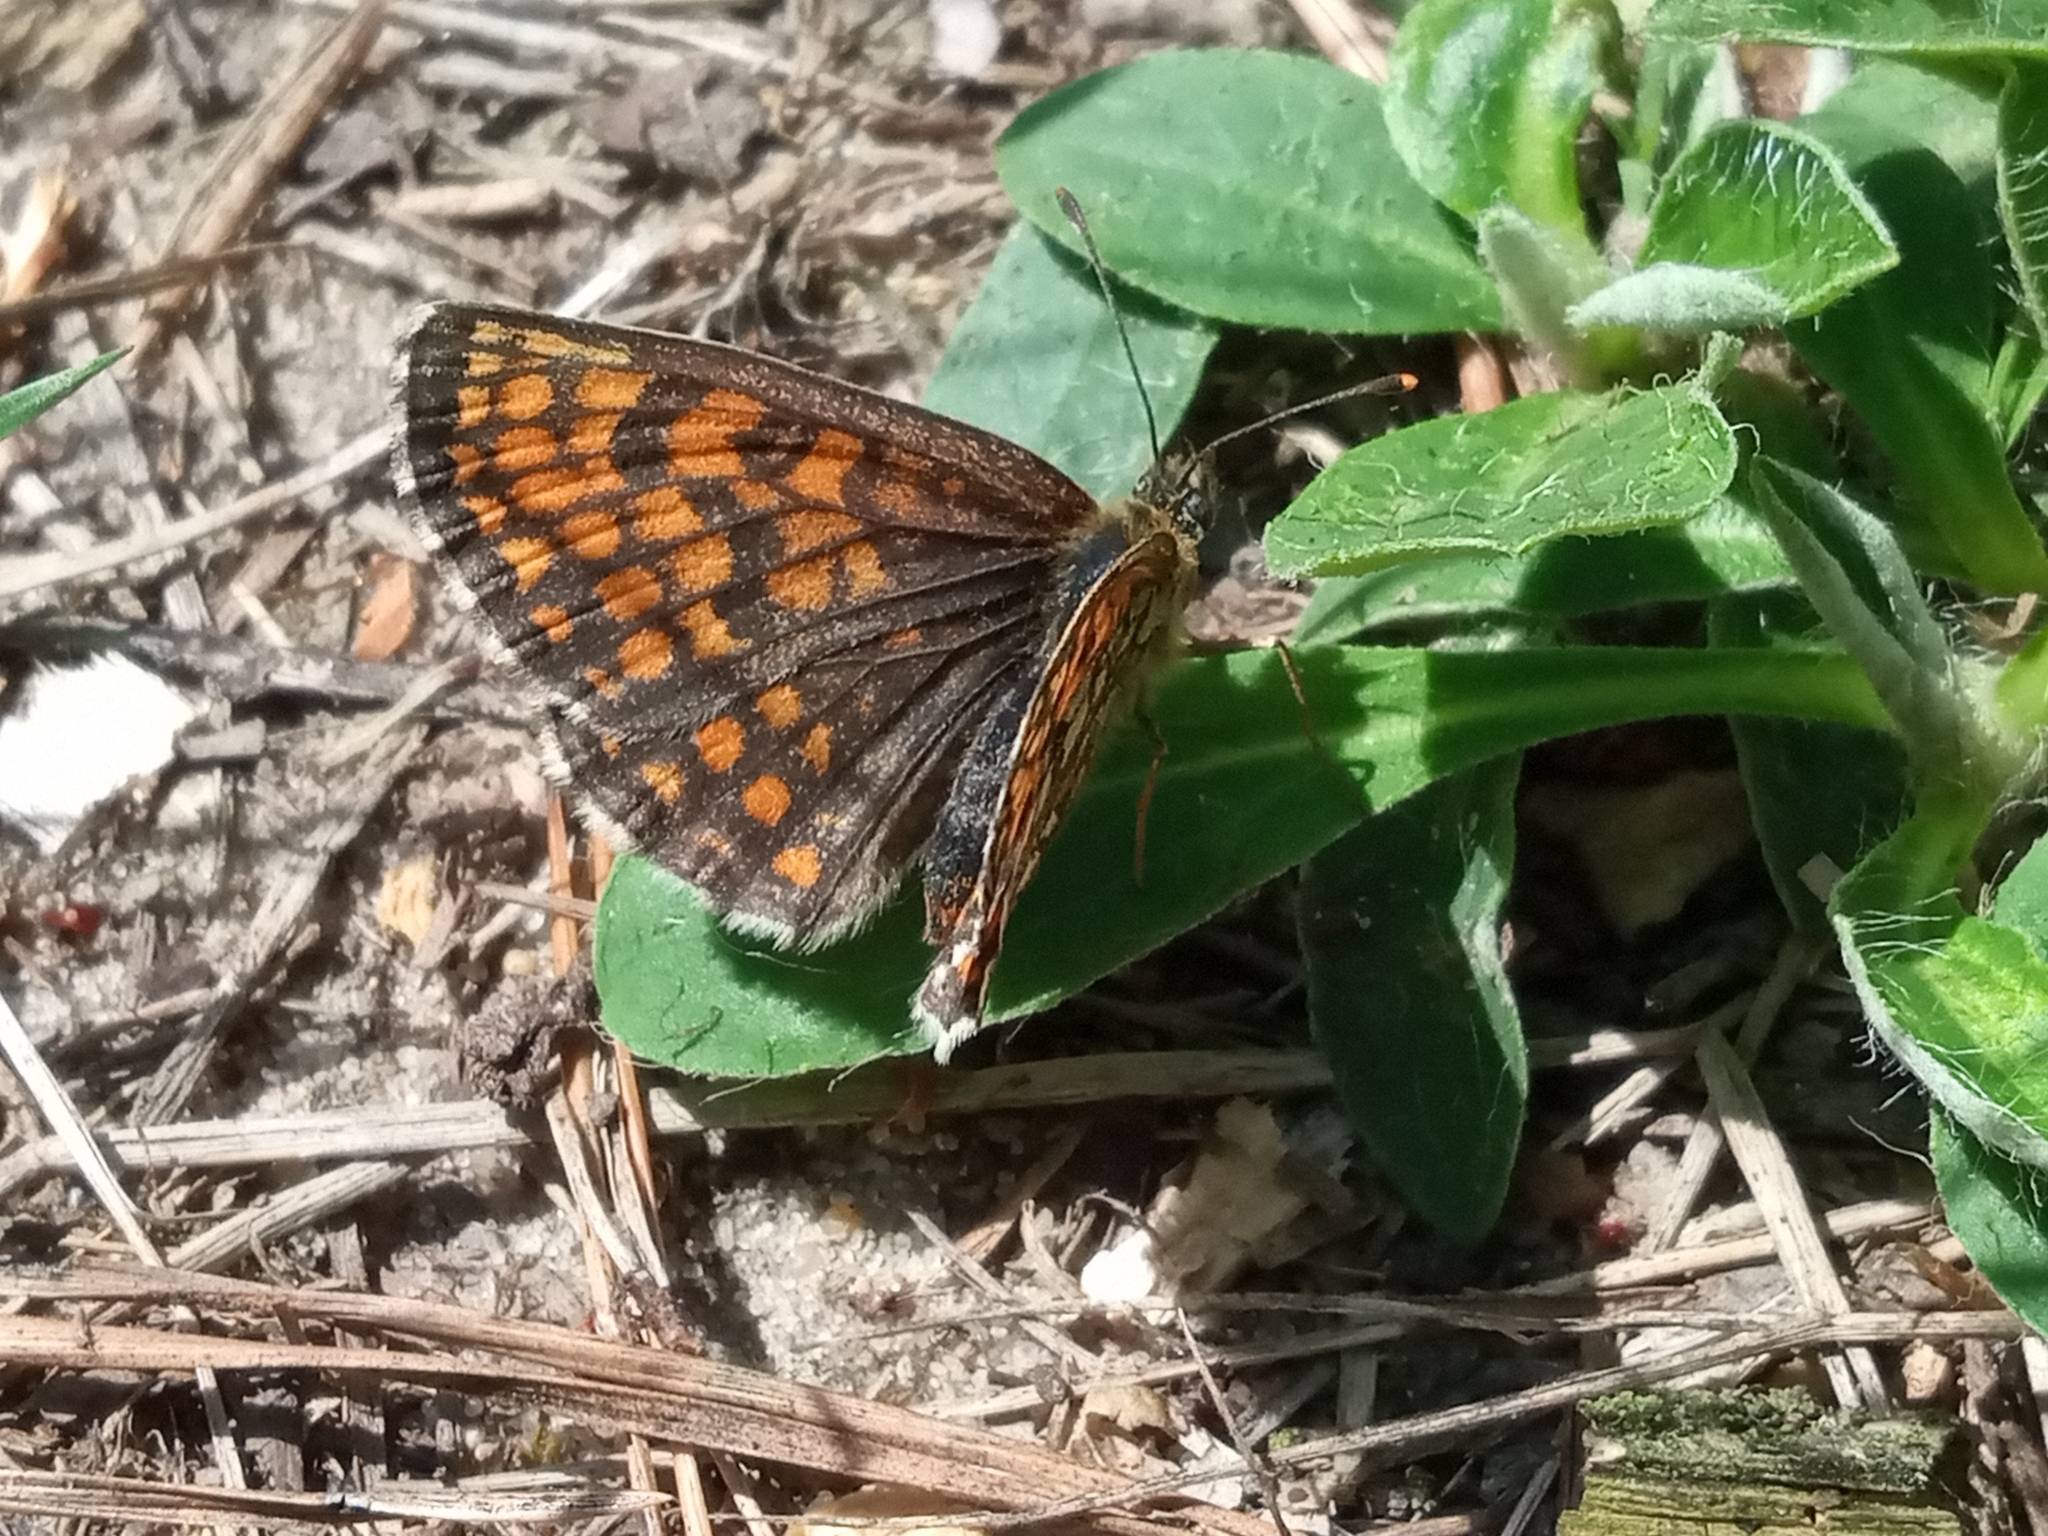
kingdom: Animalia
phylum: Arthropoda
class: Insecta
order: Lepidoptera
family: Nymphalidae
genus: Melitaea
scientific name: Melitaea athalia
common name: Heath fritillary
